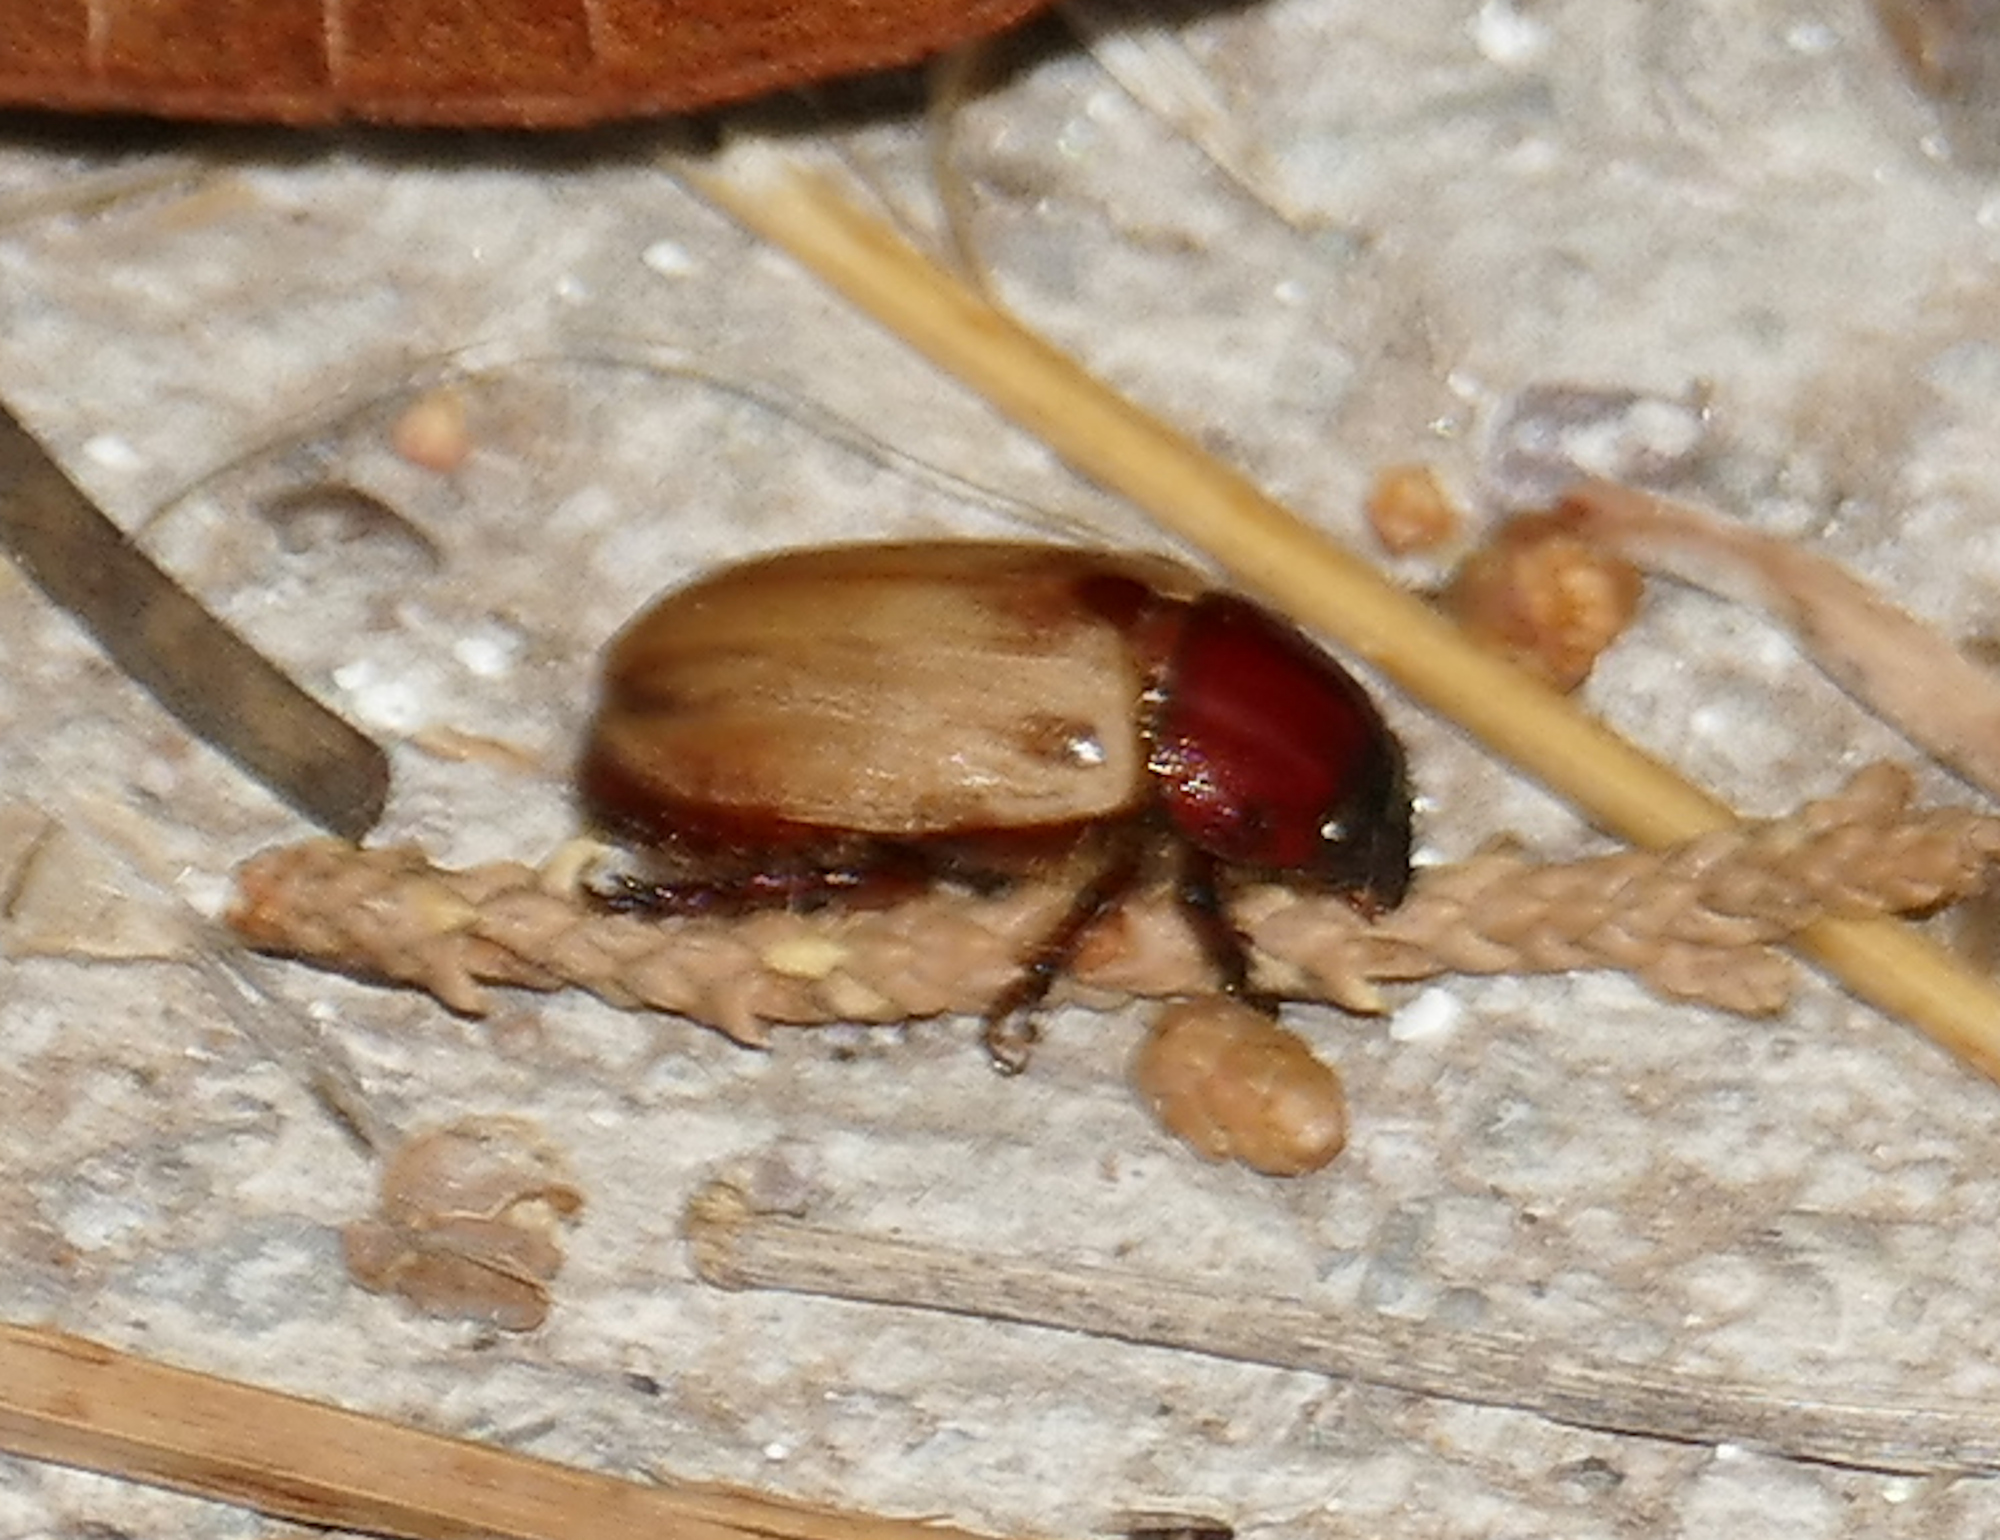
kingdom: Animalia
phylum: Arthropoda
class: Insecta
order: Coleoptera
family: Scarabaeidae
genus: Cyclocephala
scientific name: Cyclocephala melanocephala
